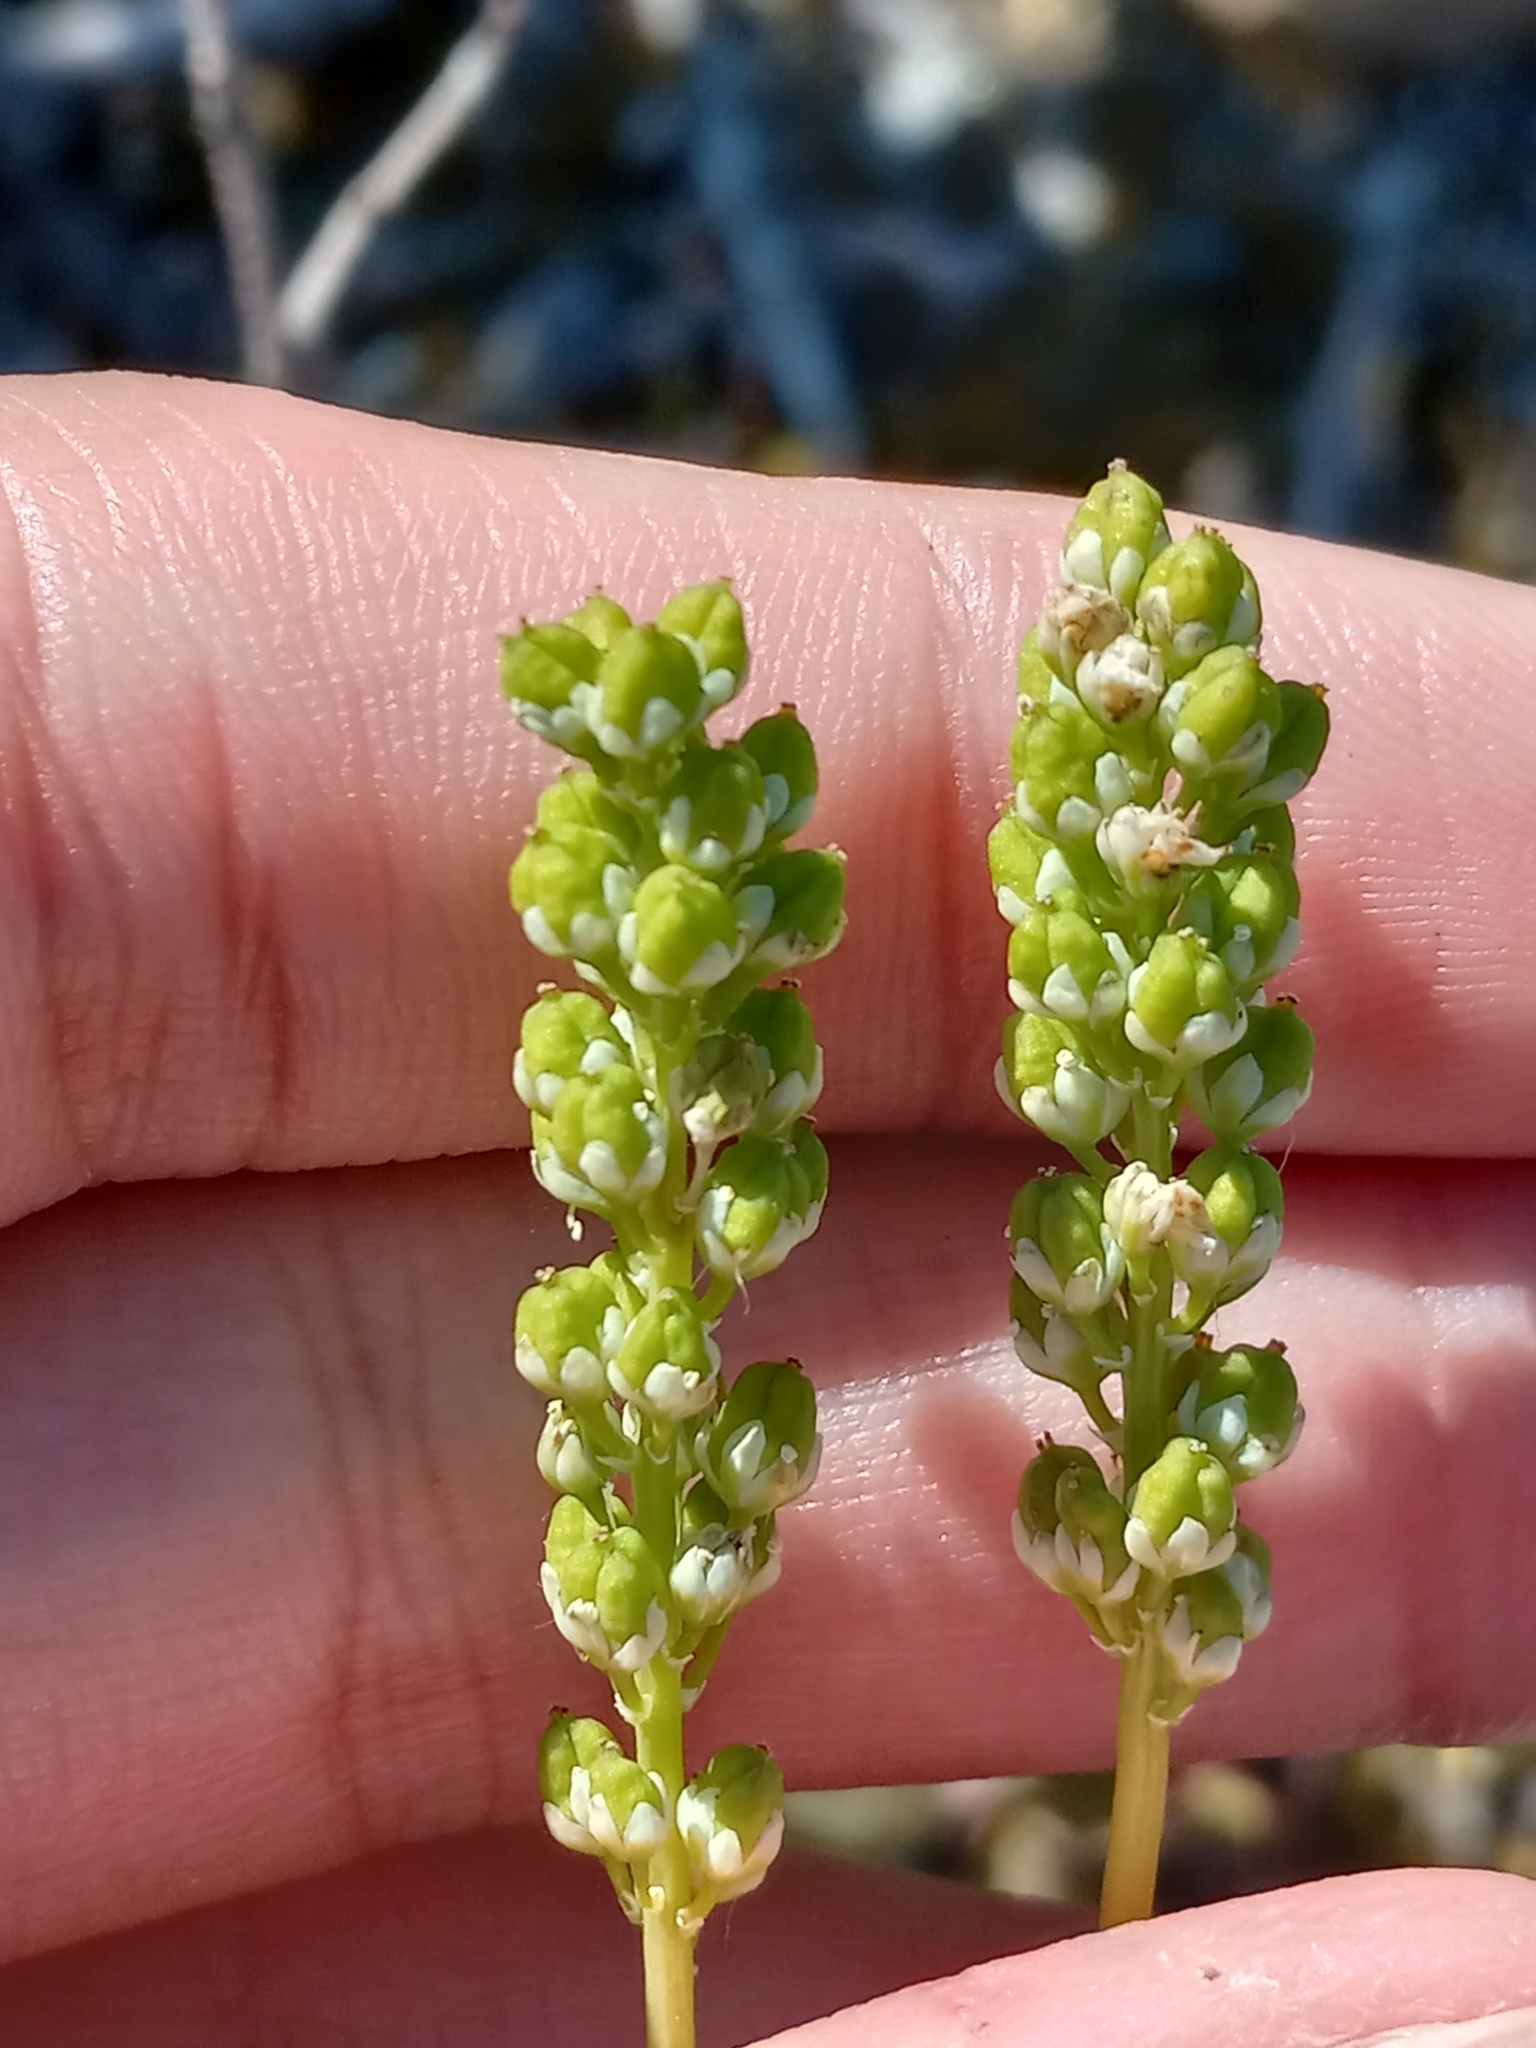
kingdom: Plantae
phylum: Tracheophyta
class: Liliopsida
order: Alismatales
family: Tofieldiaceae
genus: Tofieldia
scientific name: Tofieldia pusilla
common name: Scottish false asphodel
